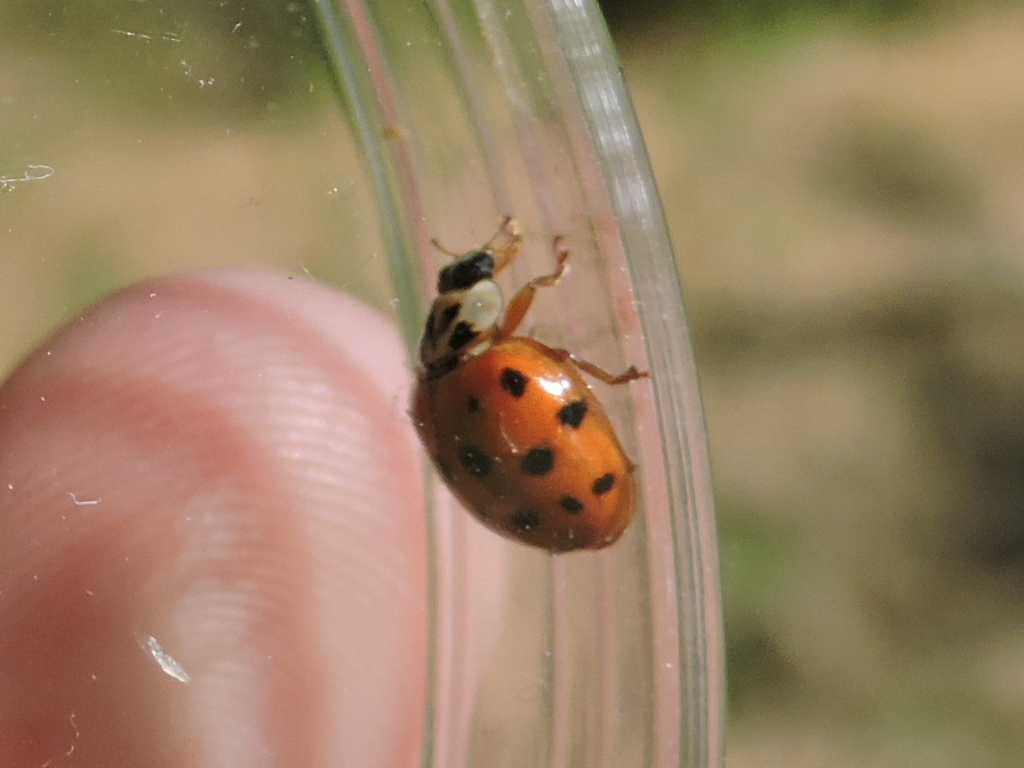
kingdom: Animalia
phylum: Arthropoda
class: Insecta
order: Coleoptera
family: Coccinellidae
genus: Harmonia
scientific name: Harmonia axyridis
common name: Harlequin ladybird
